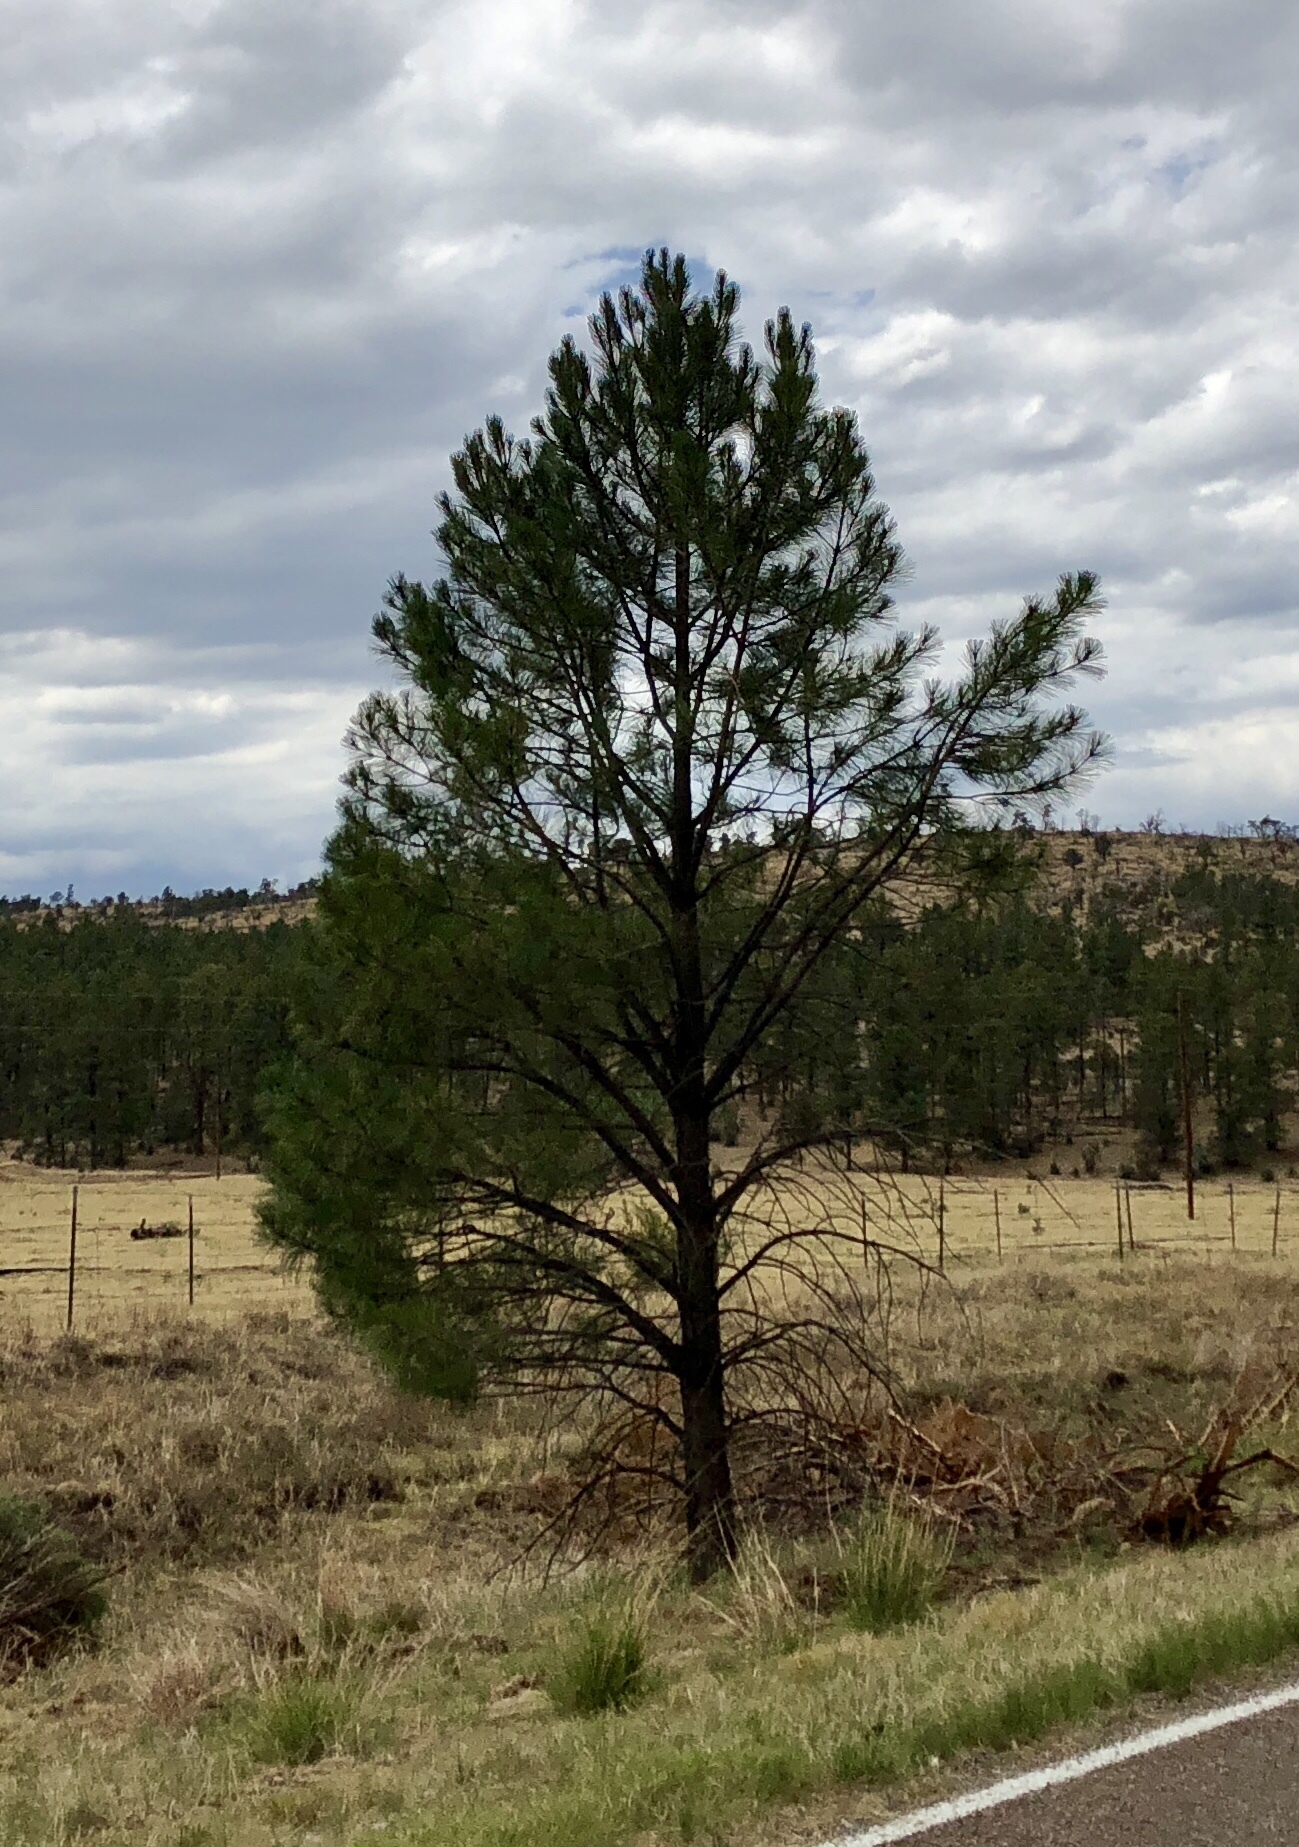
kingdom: Plantae
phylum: Tracheophyta
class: Pinopsida
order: Pinales
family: Pinaceae
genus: Pinus
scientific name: Pinus ponderosa
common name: Western yellow-pine
